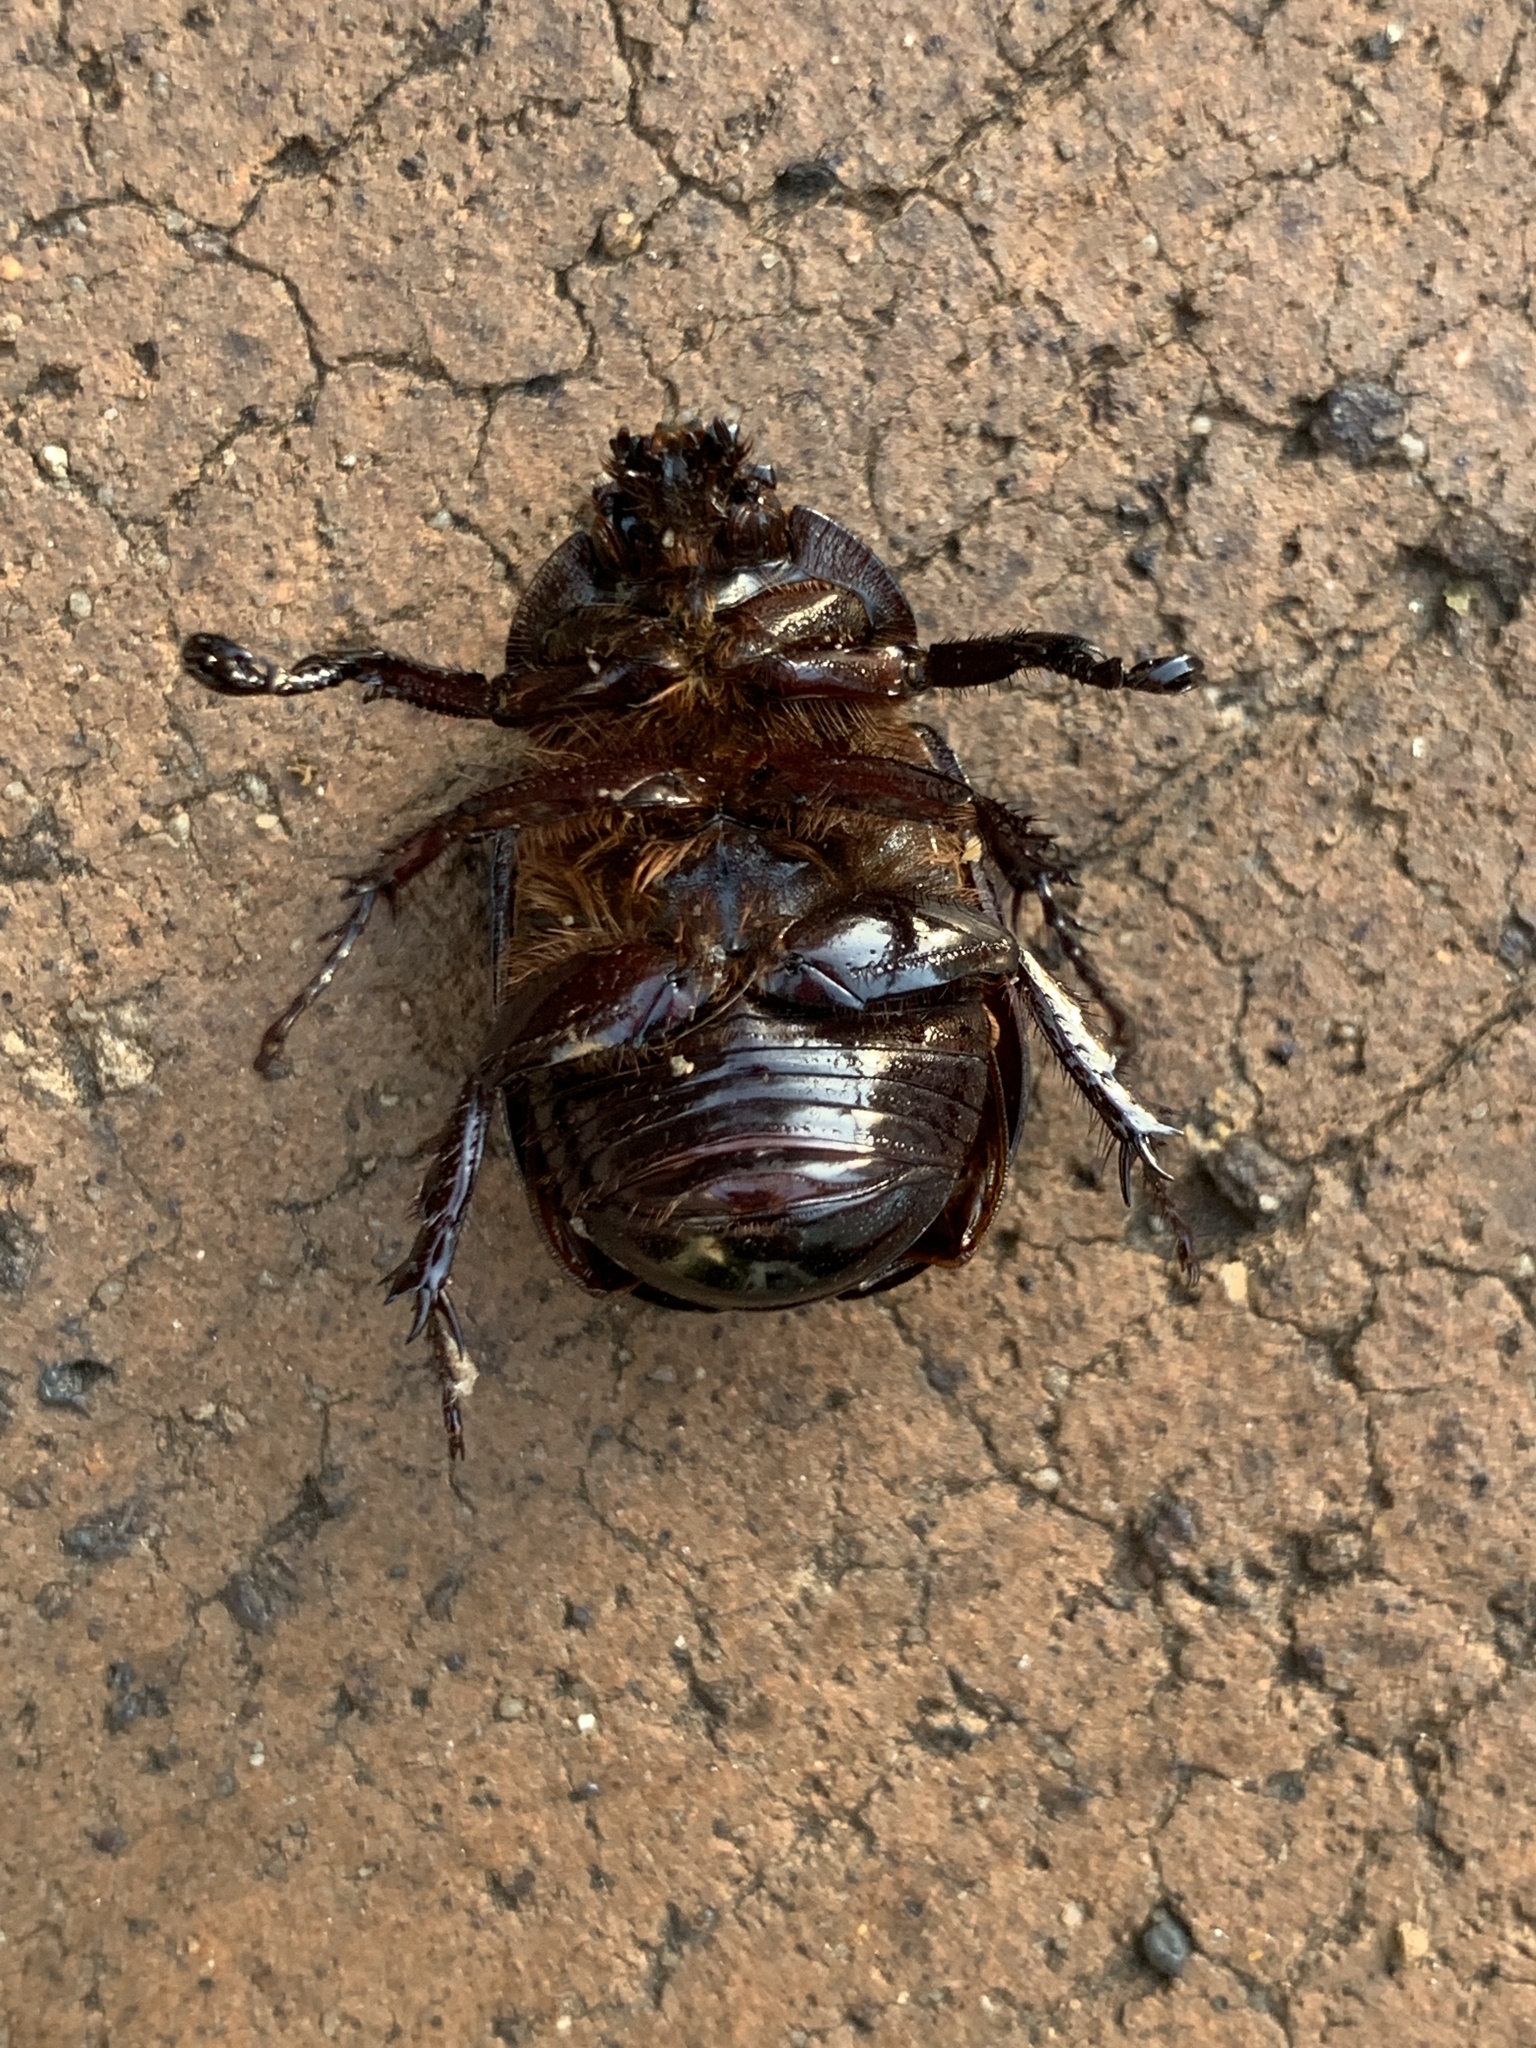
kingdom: Animalia
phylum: Arthropoda
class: Insecta
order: Coleoptera
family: Scarabaeidae
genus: Cyphonistes
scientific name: Cyphonistes vallatus
